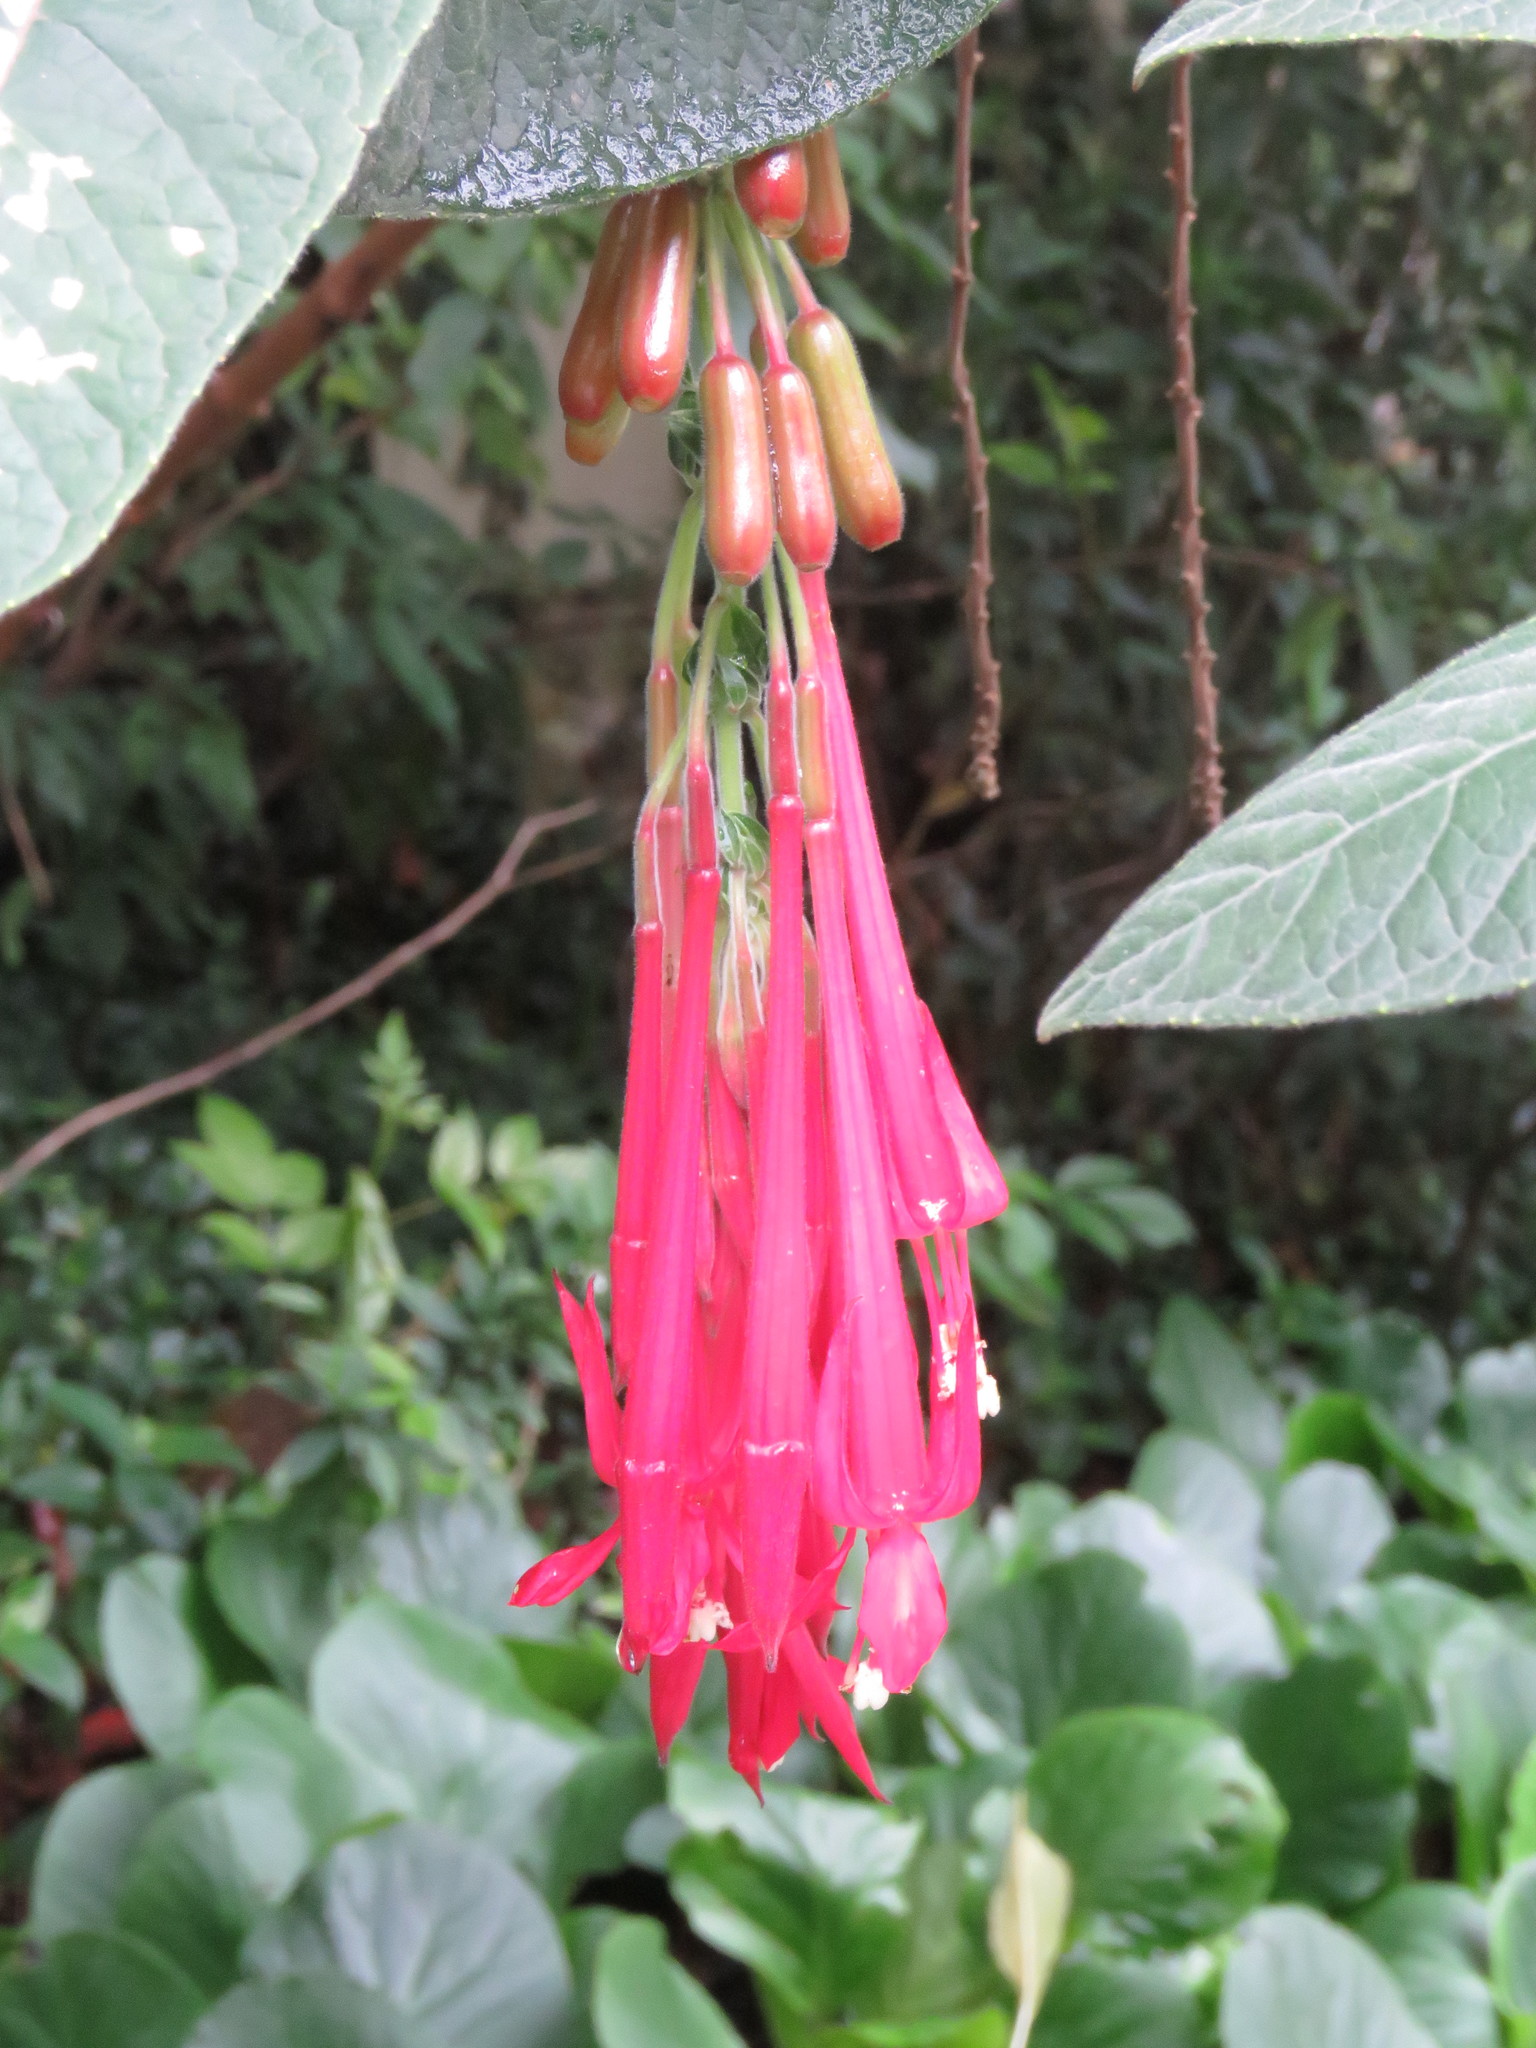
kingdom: Plantae
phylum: Tracheophyta
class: Magnoliopsida
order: Myrtales
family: Onagraceae
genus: Fuchsia
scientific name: Fuchsia boliviana
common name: Bolivian fuchsia
